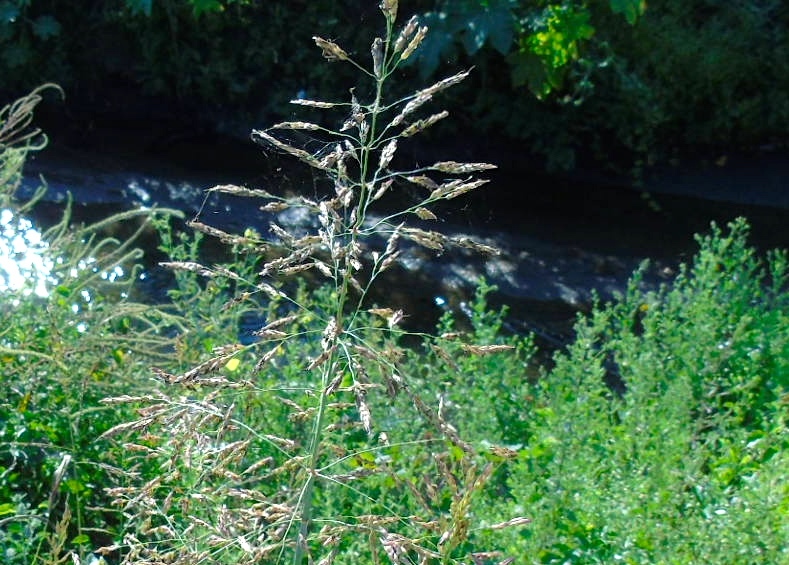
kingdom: Plantae
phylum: Tracheophyta
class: Liliopsida
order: Poales
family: Poaceae
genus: Sorghum
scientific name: Sorghum halepense
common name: Johnson-grass
